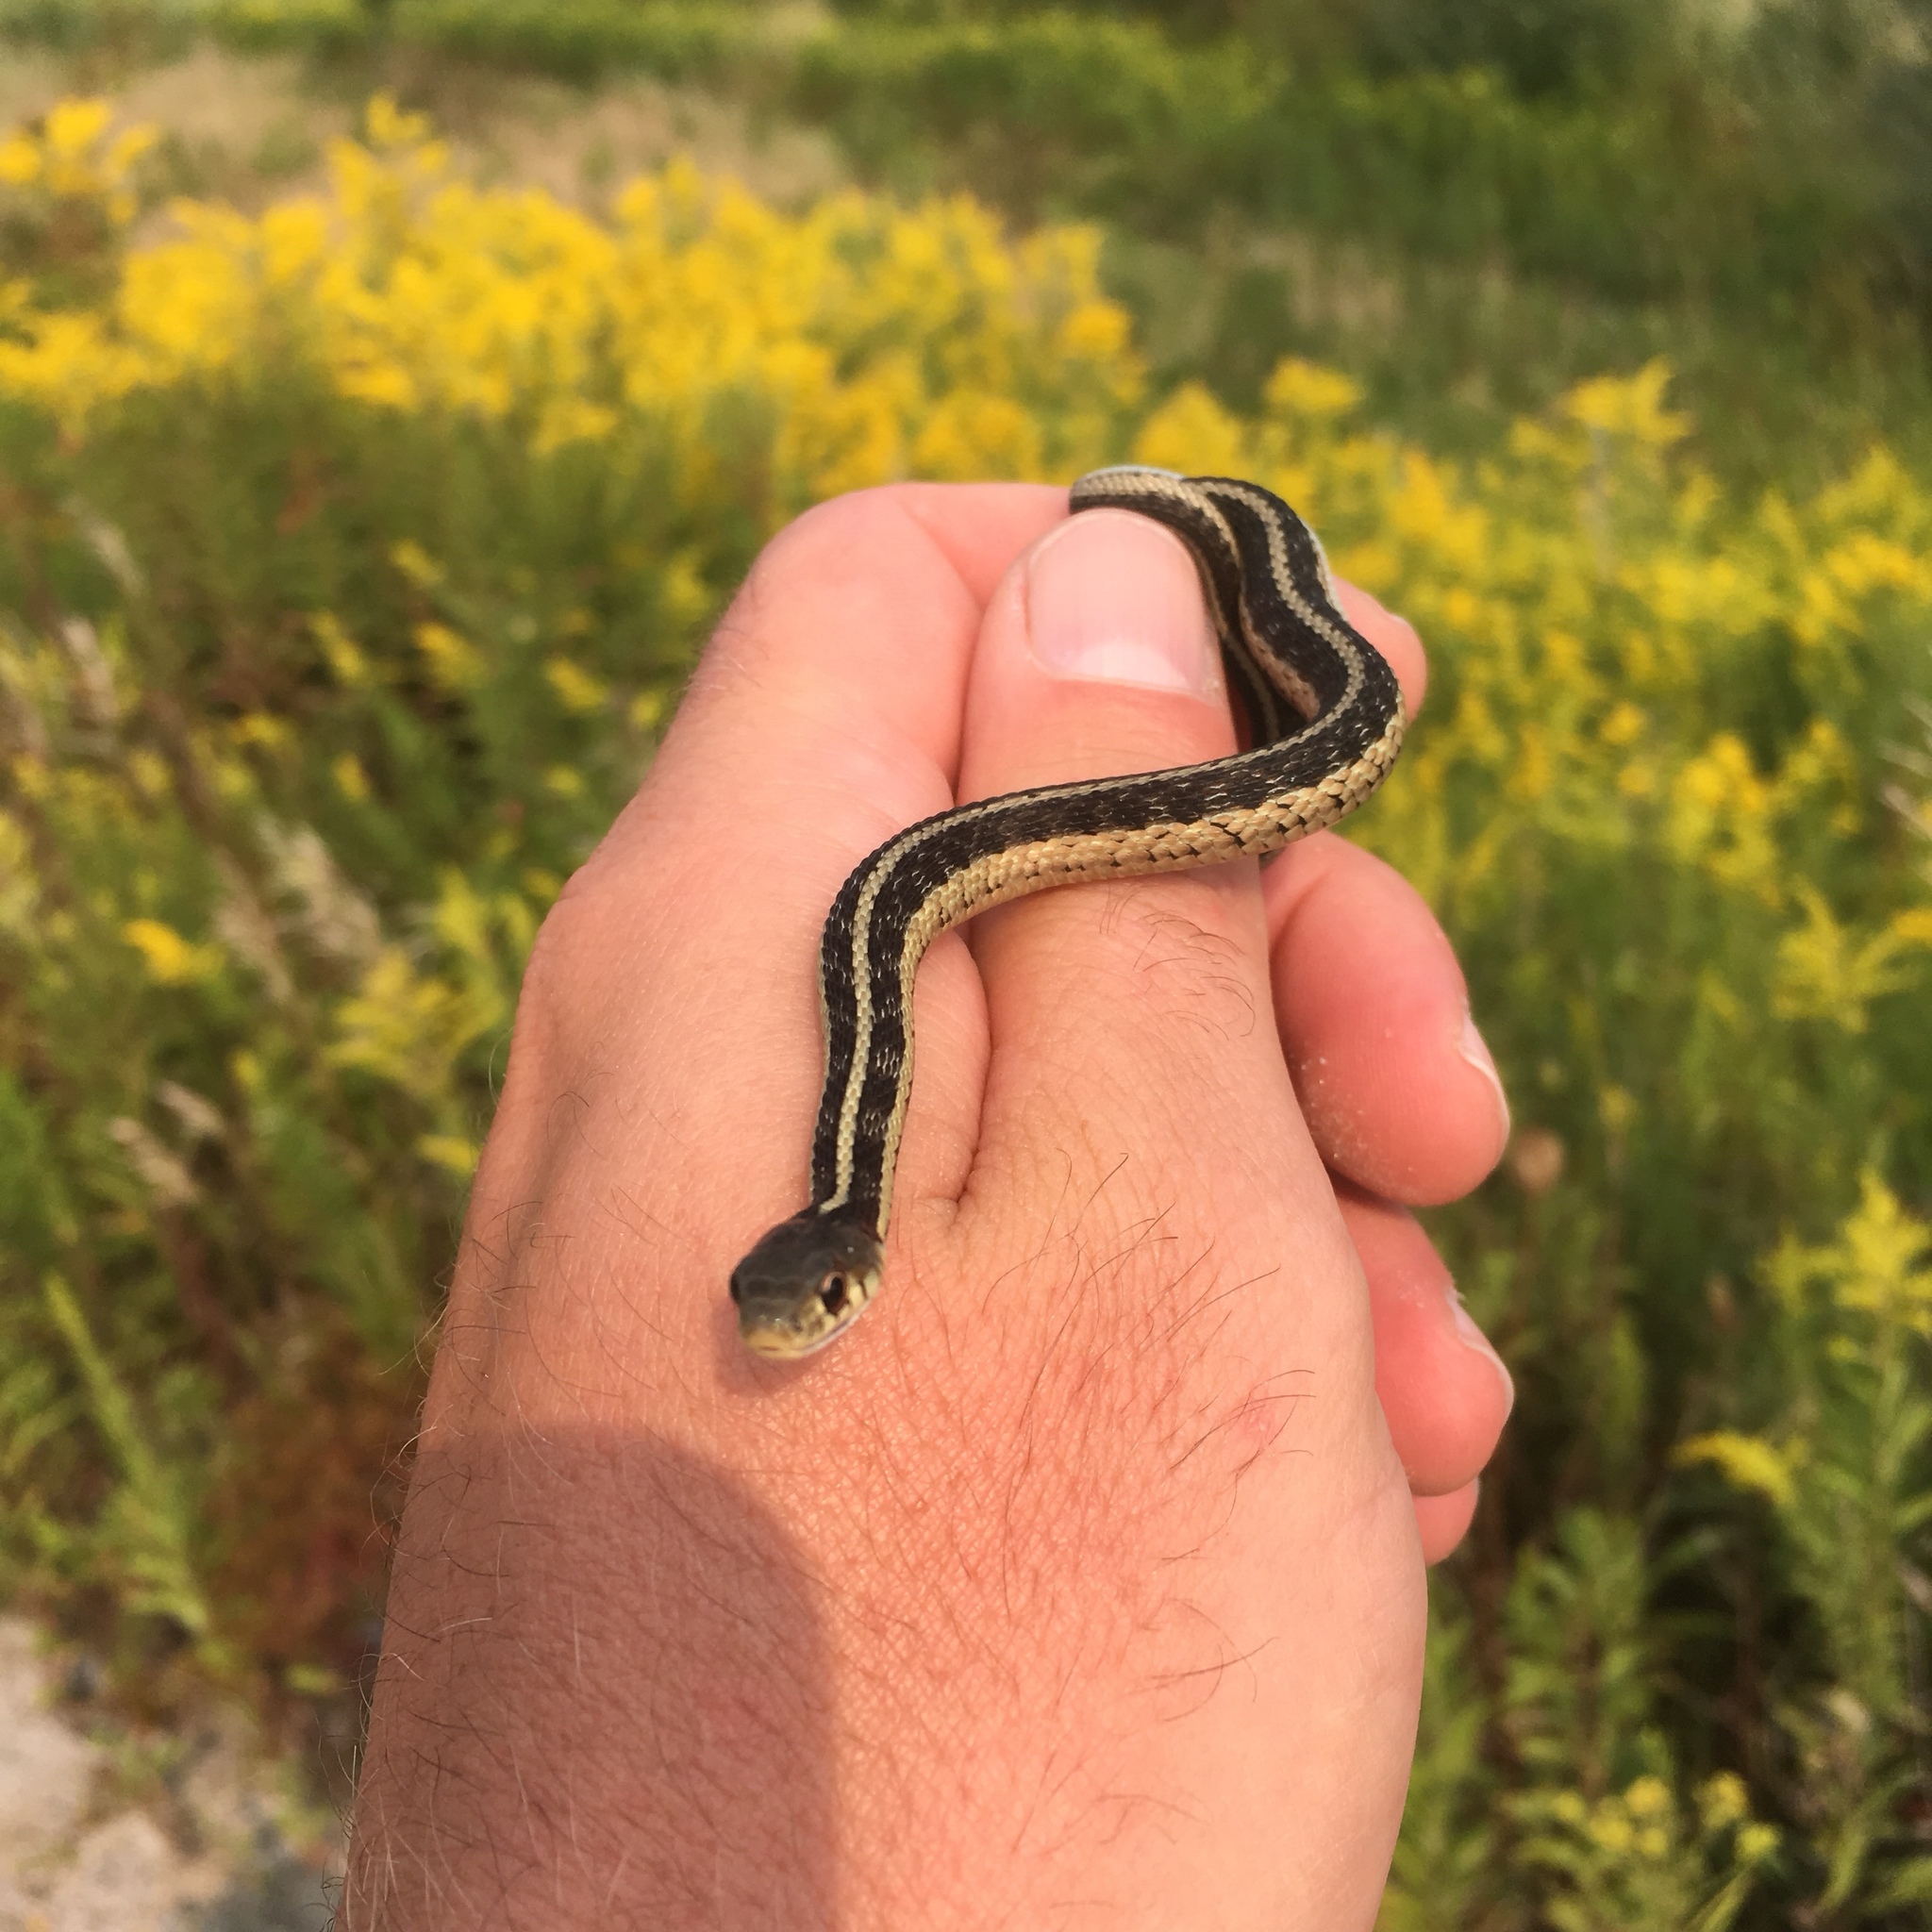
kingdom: Animalia
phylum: Chordata
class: Squamata
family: Colubridae
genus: Thamnophis
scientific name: Thamnophis sirtalis
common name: Common garter snake
